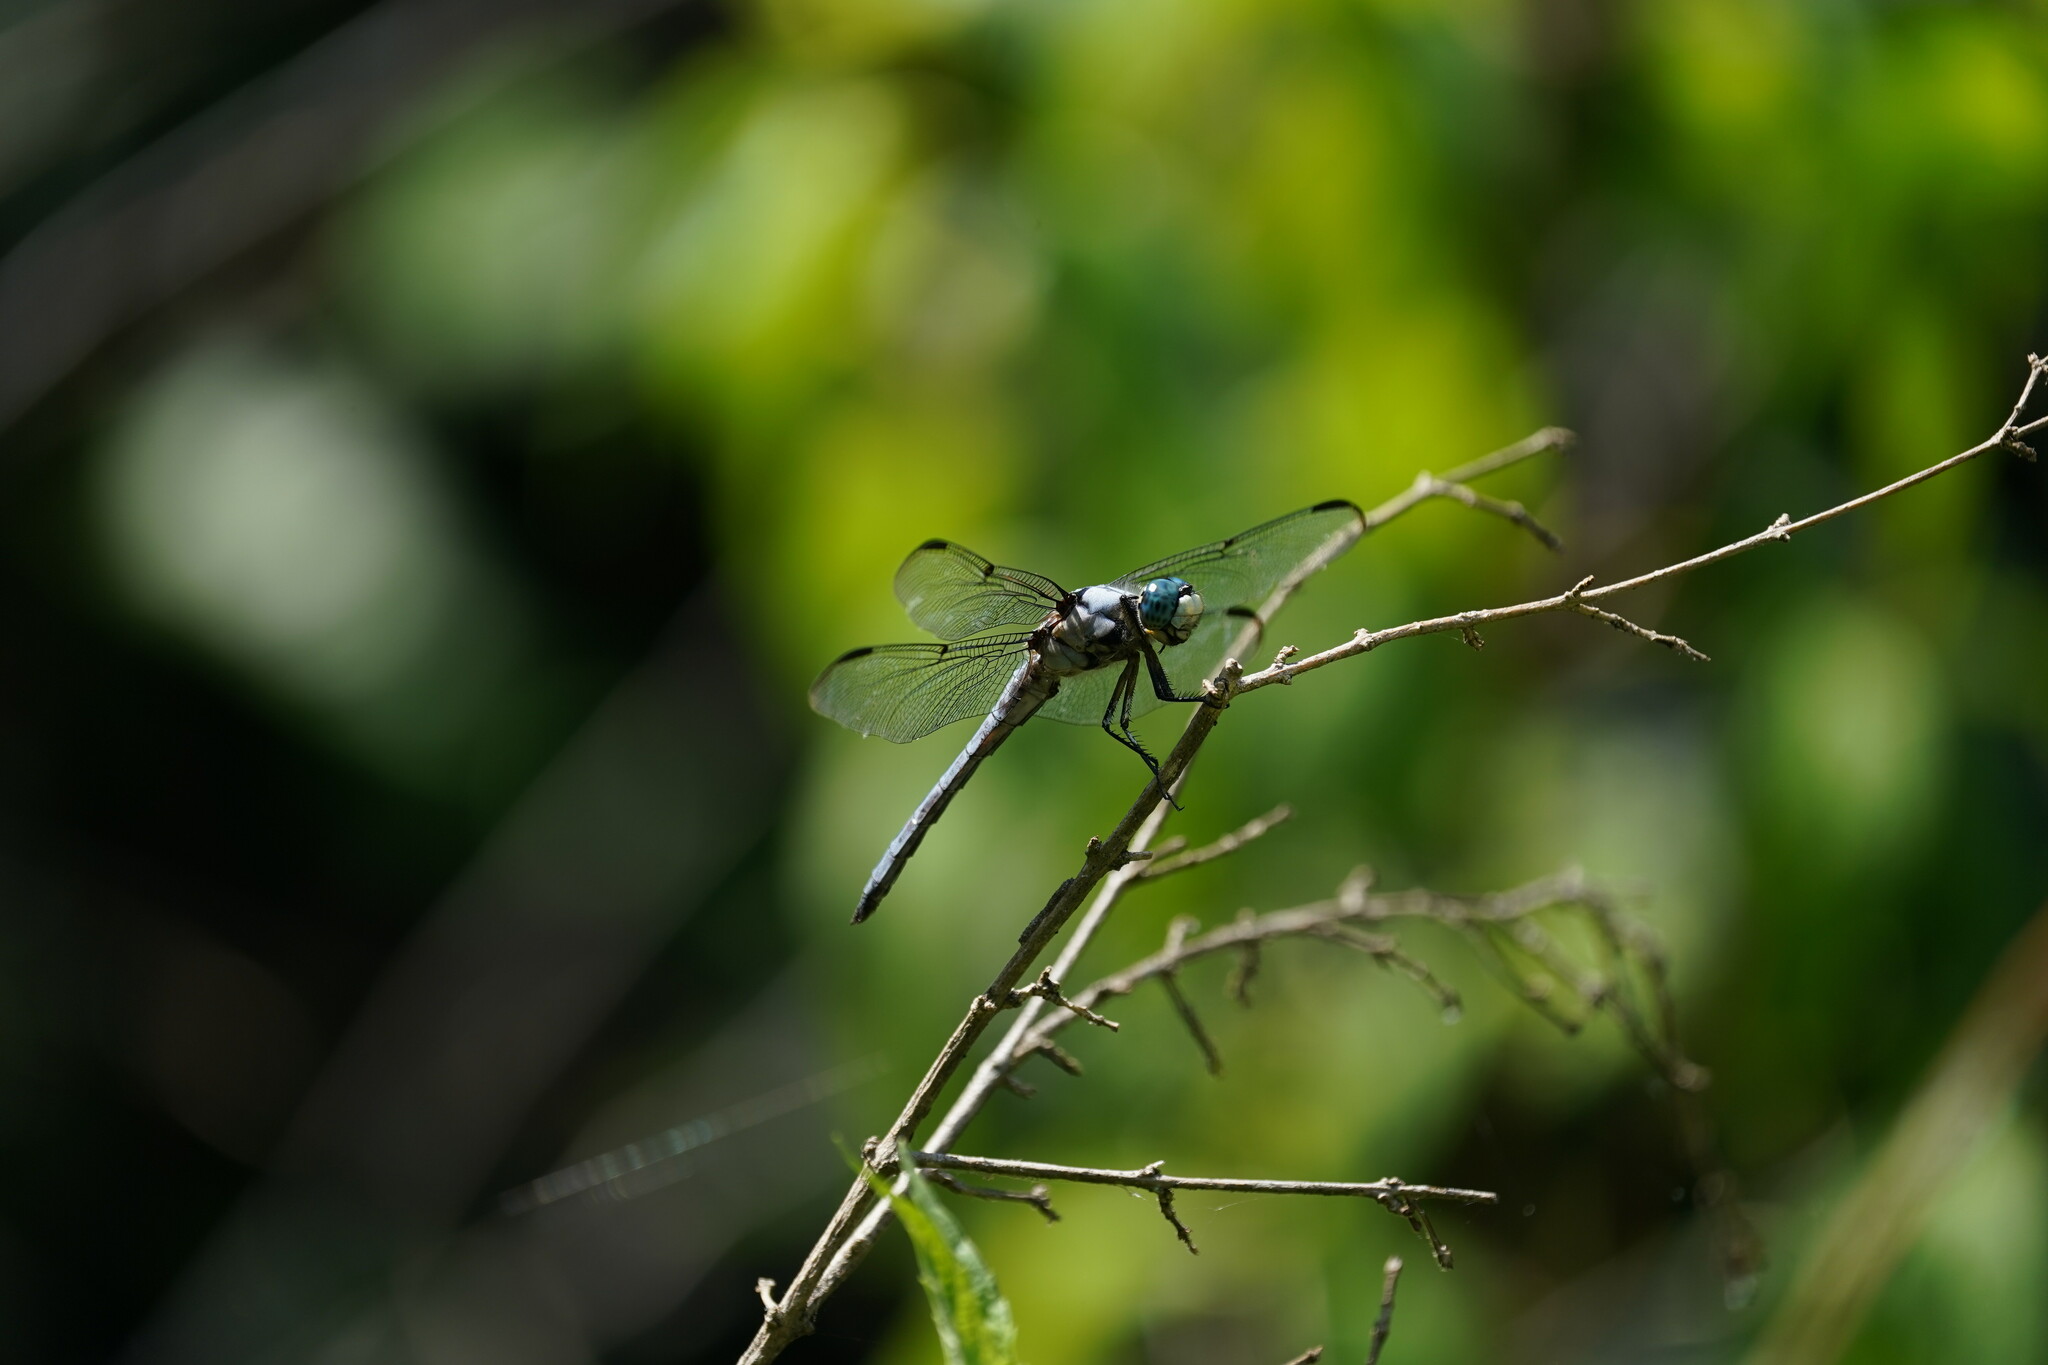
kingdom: Animalia
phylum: Arthropoda
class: Insecta
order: Odonata
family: Libellulidae
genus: Libellula
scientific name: Libellula vibrans
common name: Great blue skimmer
